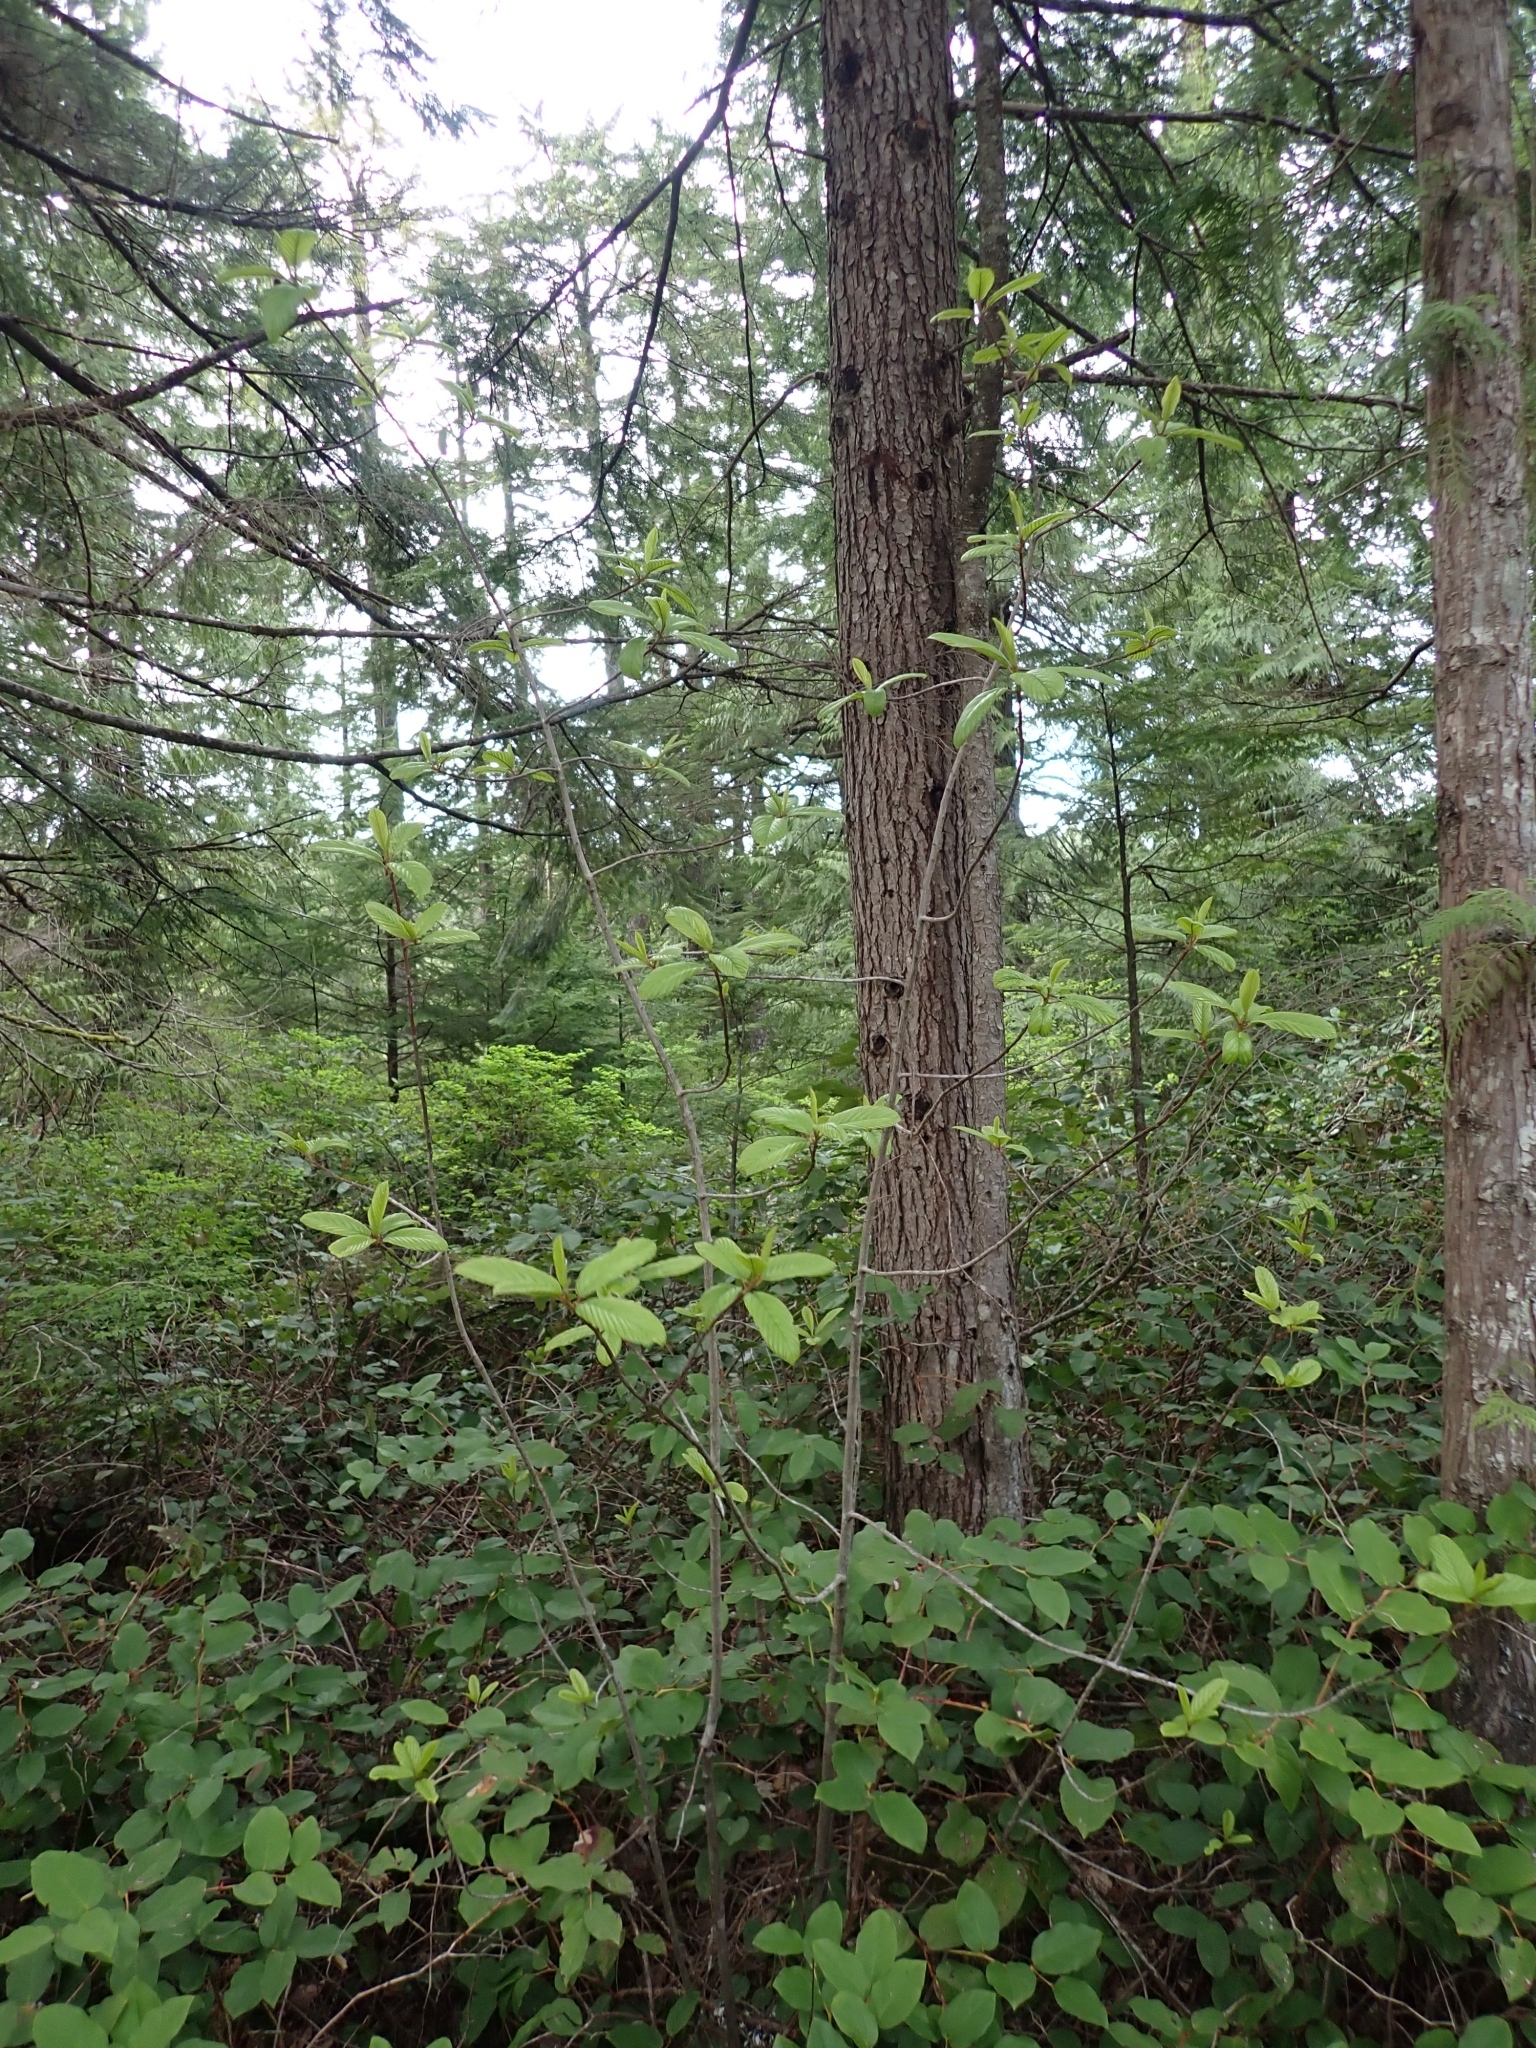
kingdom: Plantae
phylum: Tracheophyta
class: Magnoliopsida
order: Rosales
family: Rhamnaceae
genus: Frangula
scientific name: Frangula purshiana
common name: Cascara buckthorn
